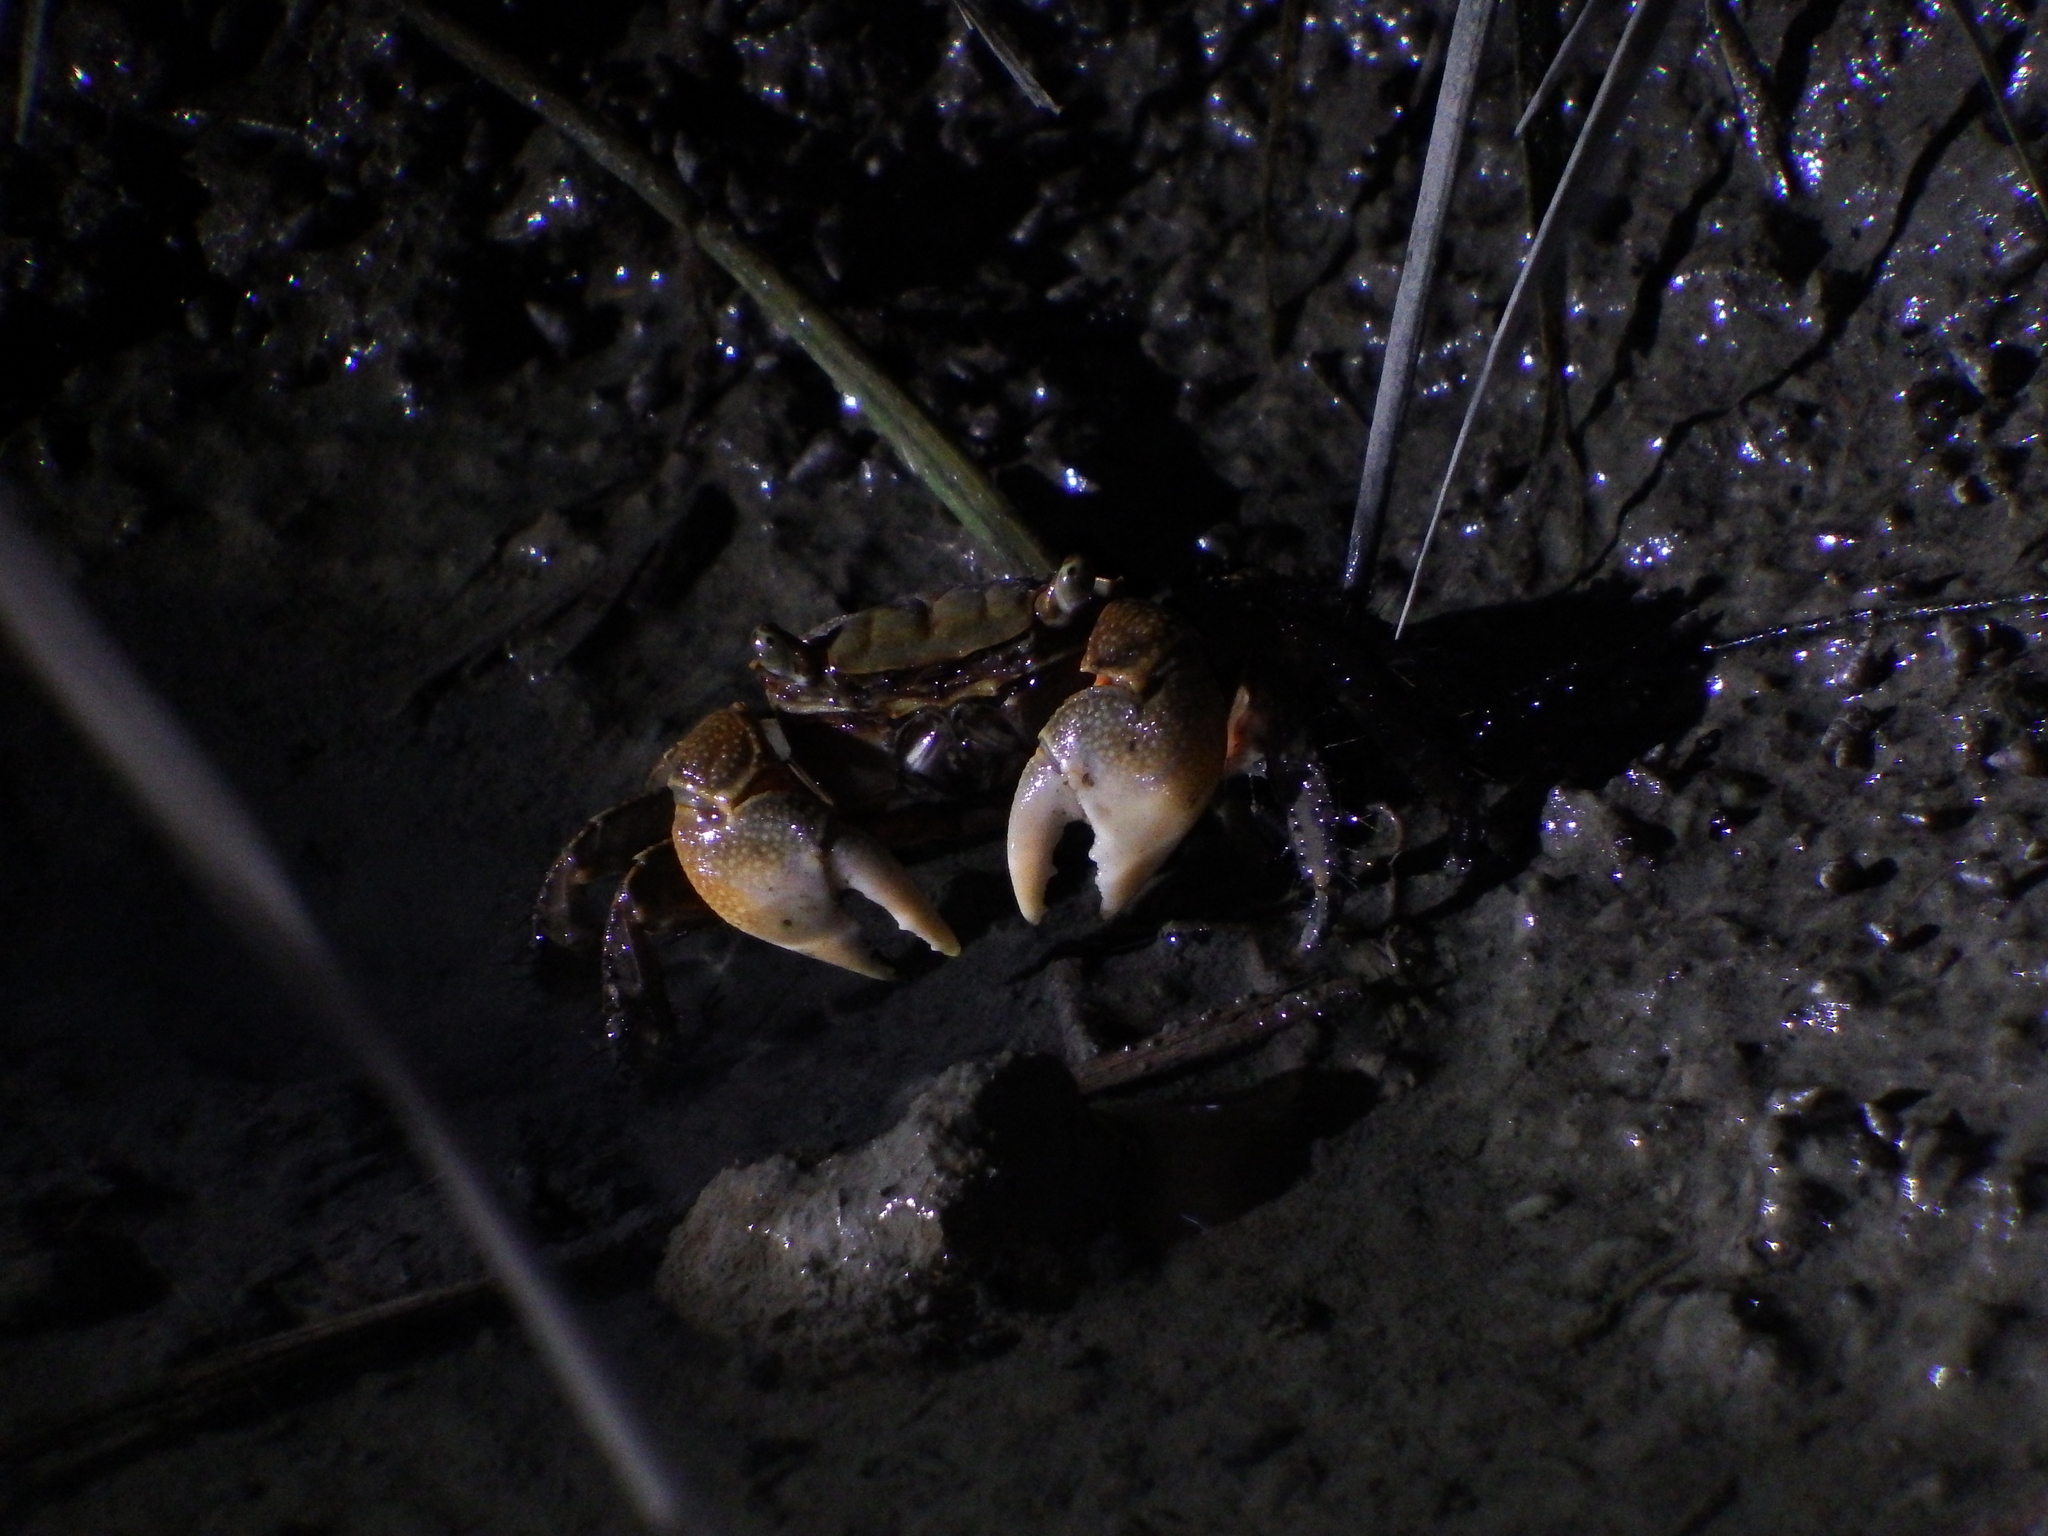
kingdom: Animalia
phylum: Arthropoda
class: Malacostraca
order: Decapoda
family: Sesarmidae
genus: Orisarma
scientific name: Orisarma dehaani
